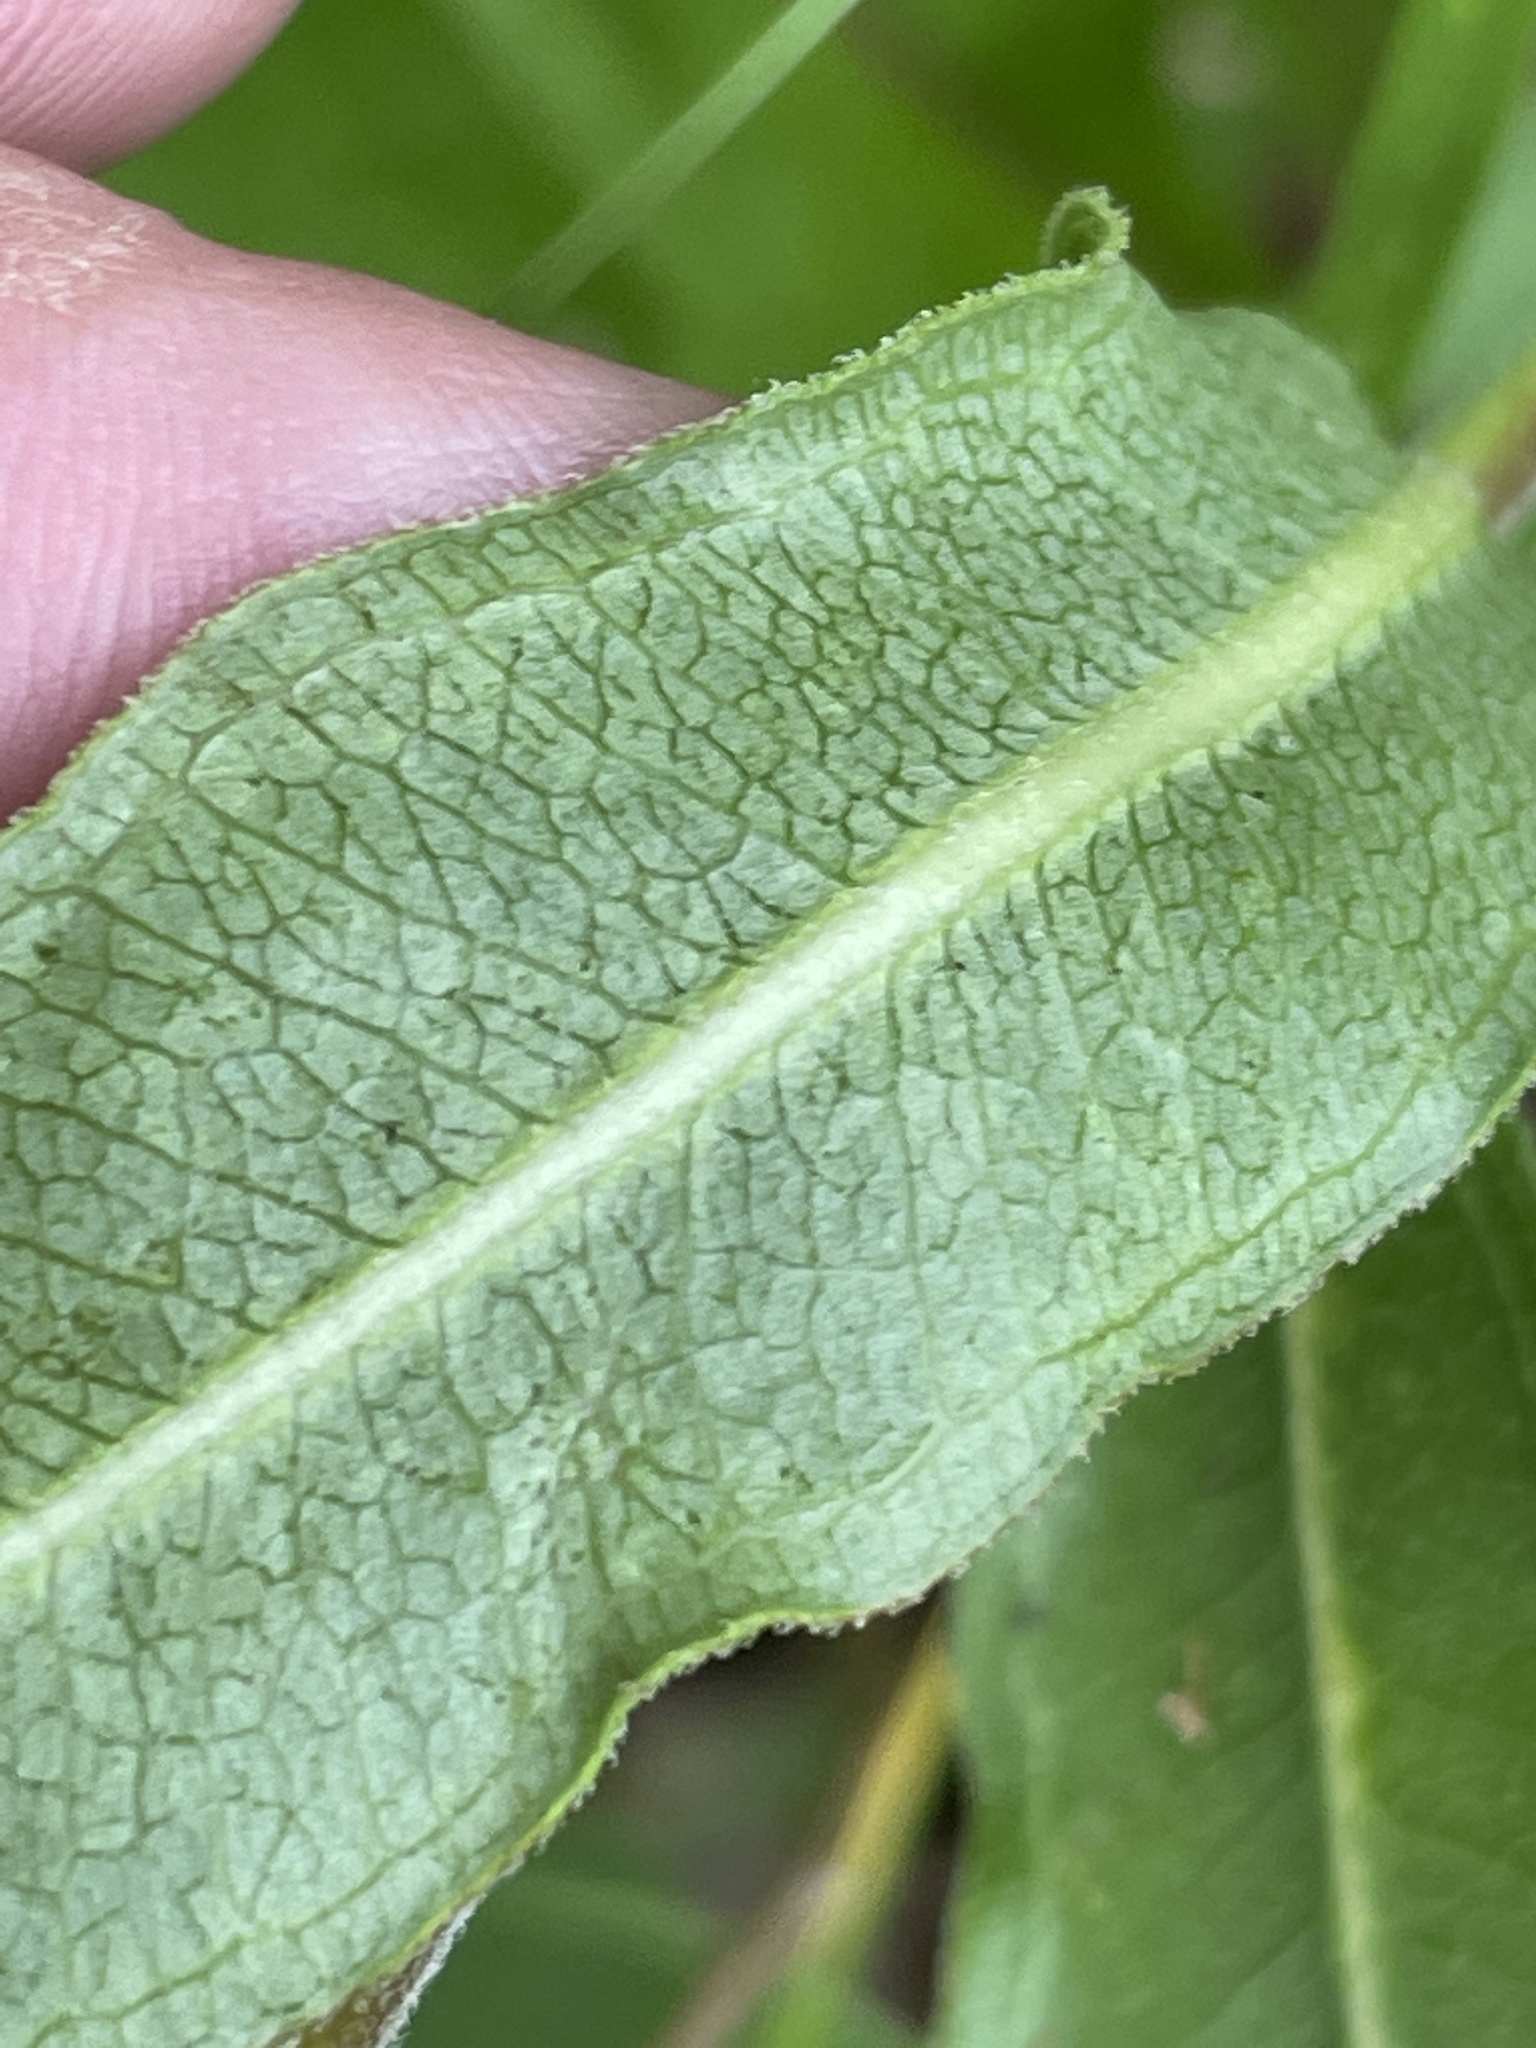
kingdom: Plantae
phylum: Tracheophyta
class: Magnoliopsida
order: Gentianales
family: Apocynaceae
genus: Asclepias
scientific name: Asclepias viridiflora
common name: Green comet milkweed
